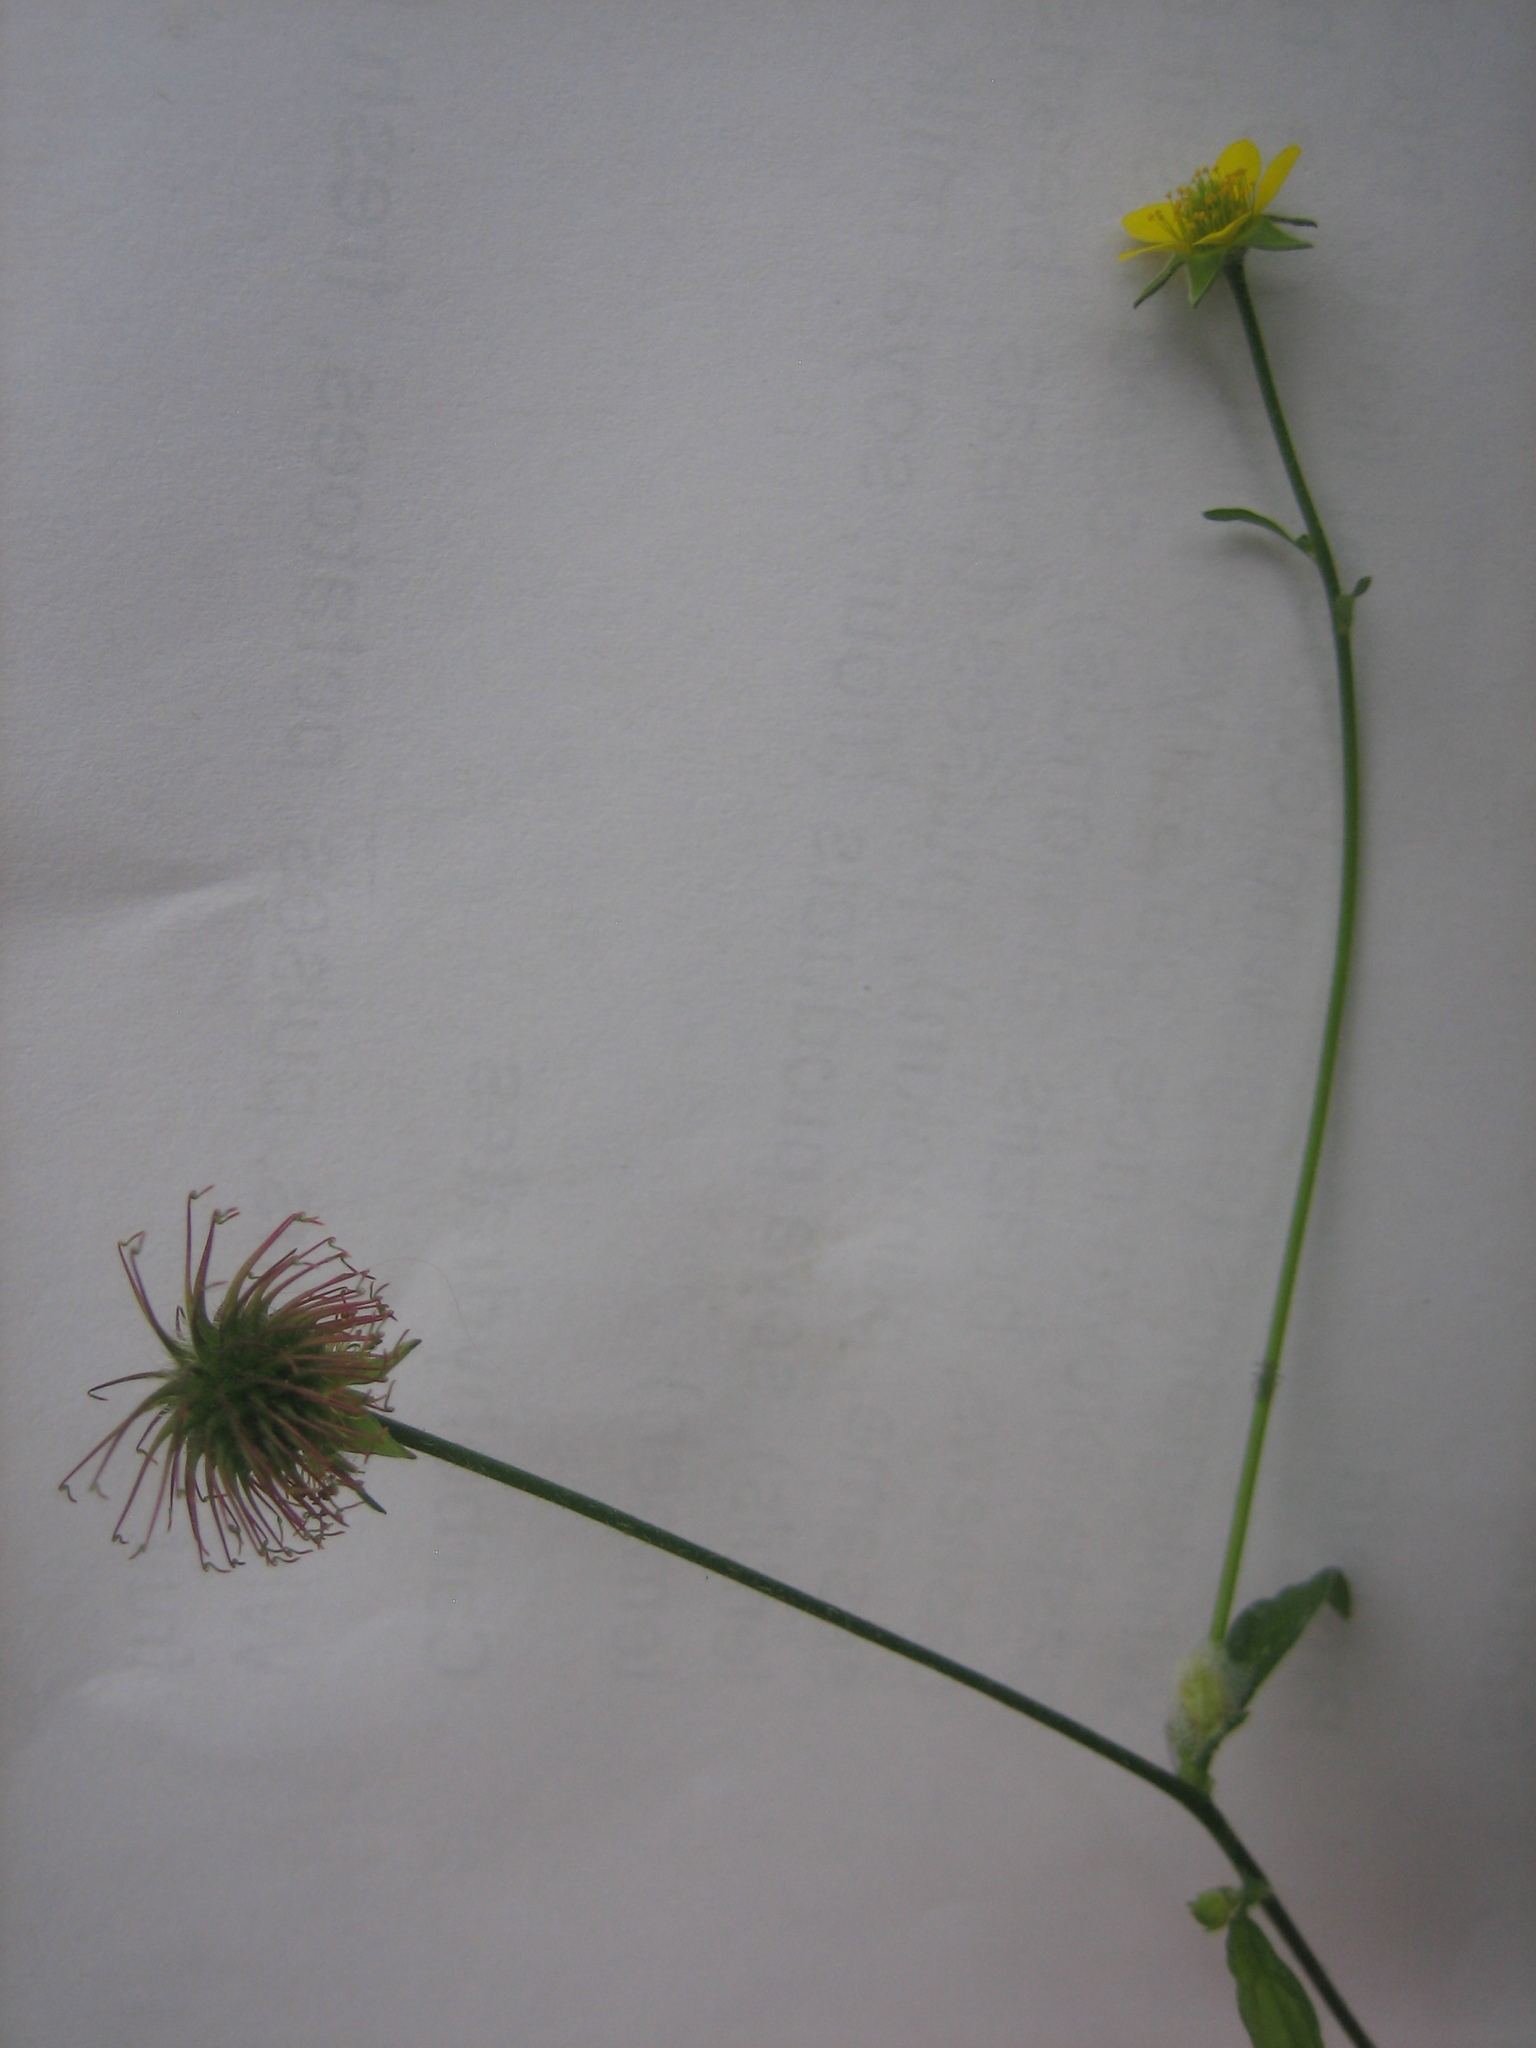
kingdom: Plantae
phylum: Tracheophyta
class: Magnoliopsida
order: Rosales
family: Rosaceae
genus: Geum
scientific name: Geum urbanum
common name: Wood avens
